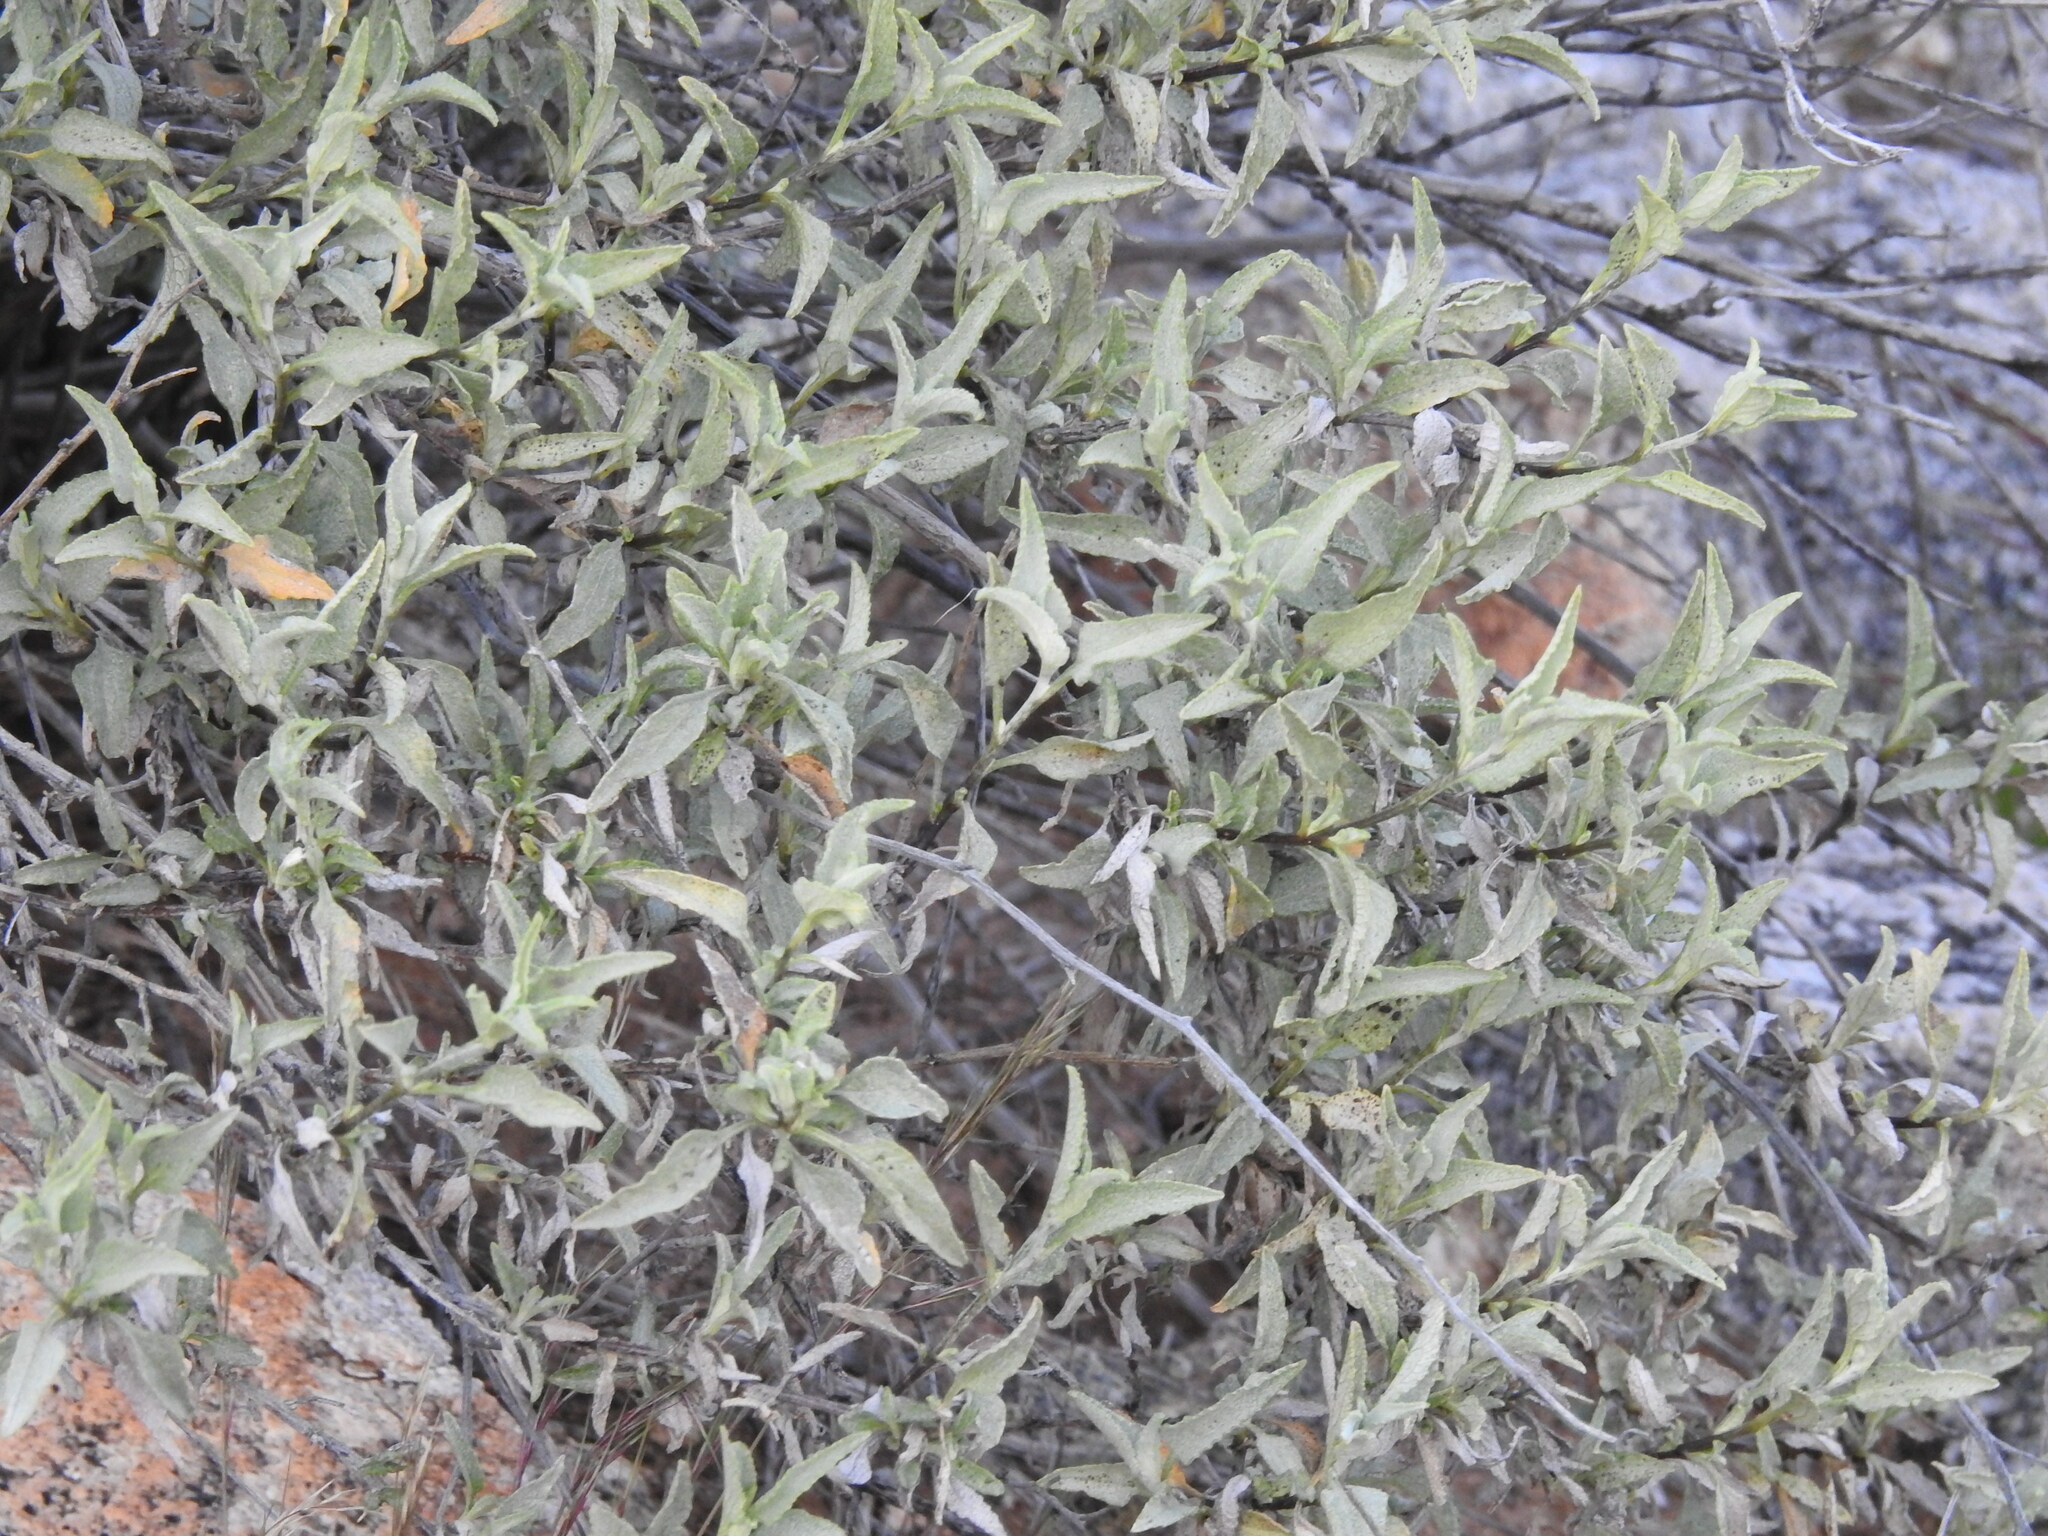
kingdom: Plantae
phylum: Tracheophyta
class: Magnoliopsida
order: Asterales
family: Asteraceae
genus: Ambrosia
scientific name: Ambrosia deltoidea
